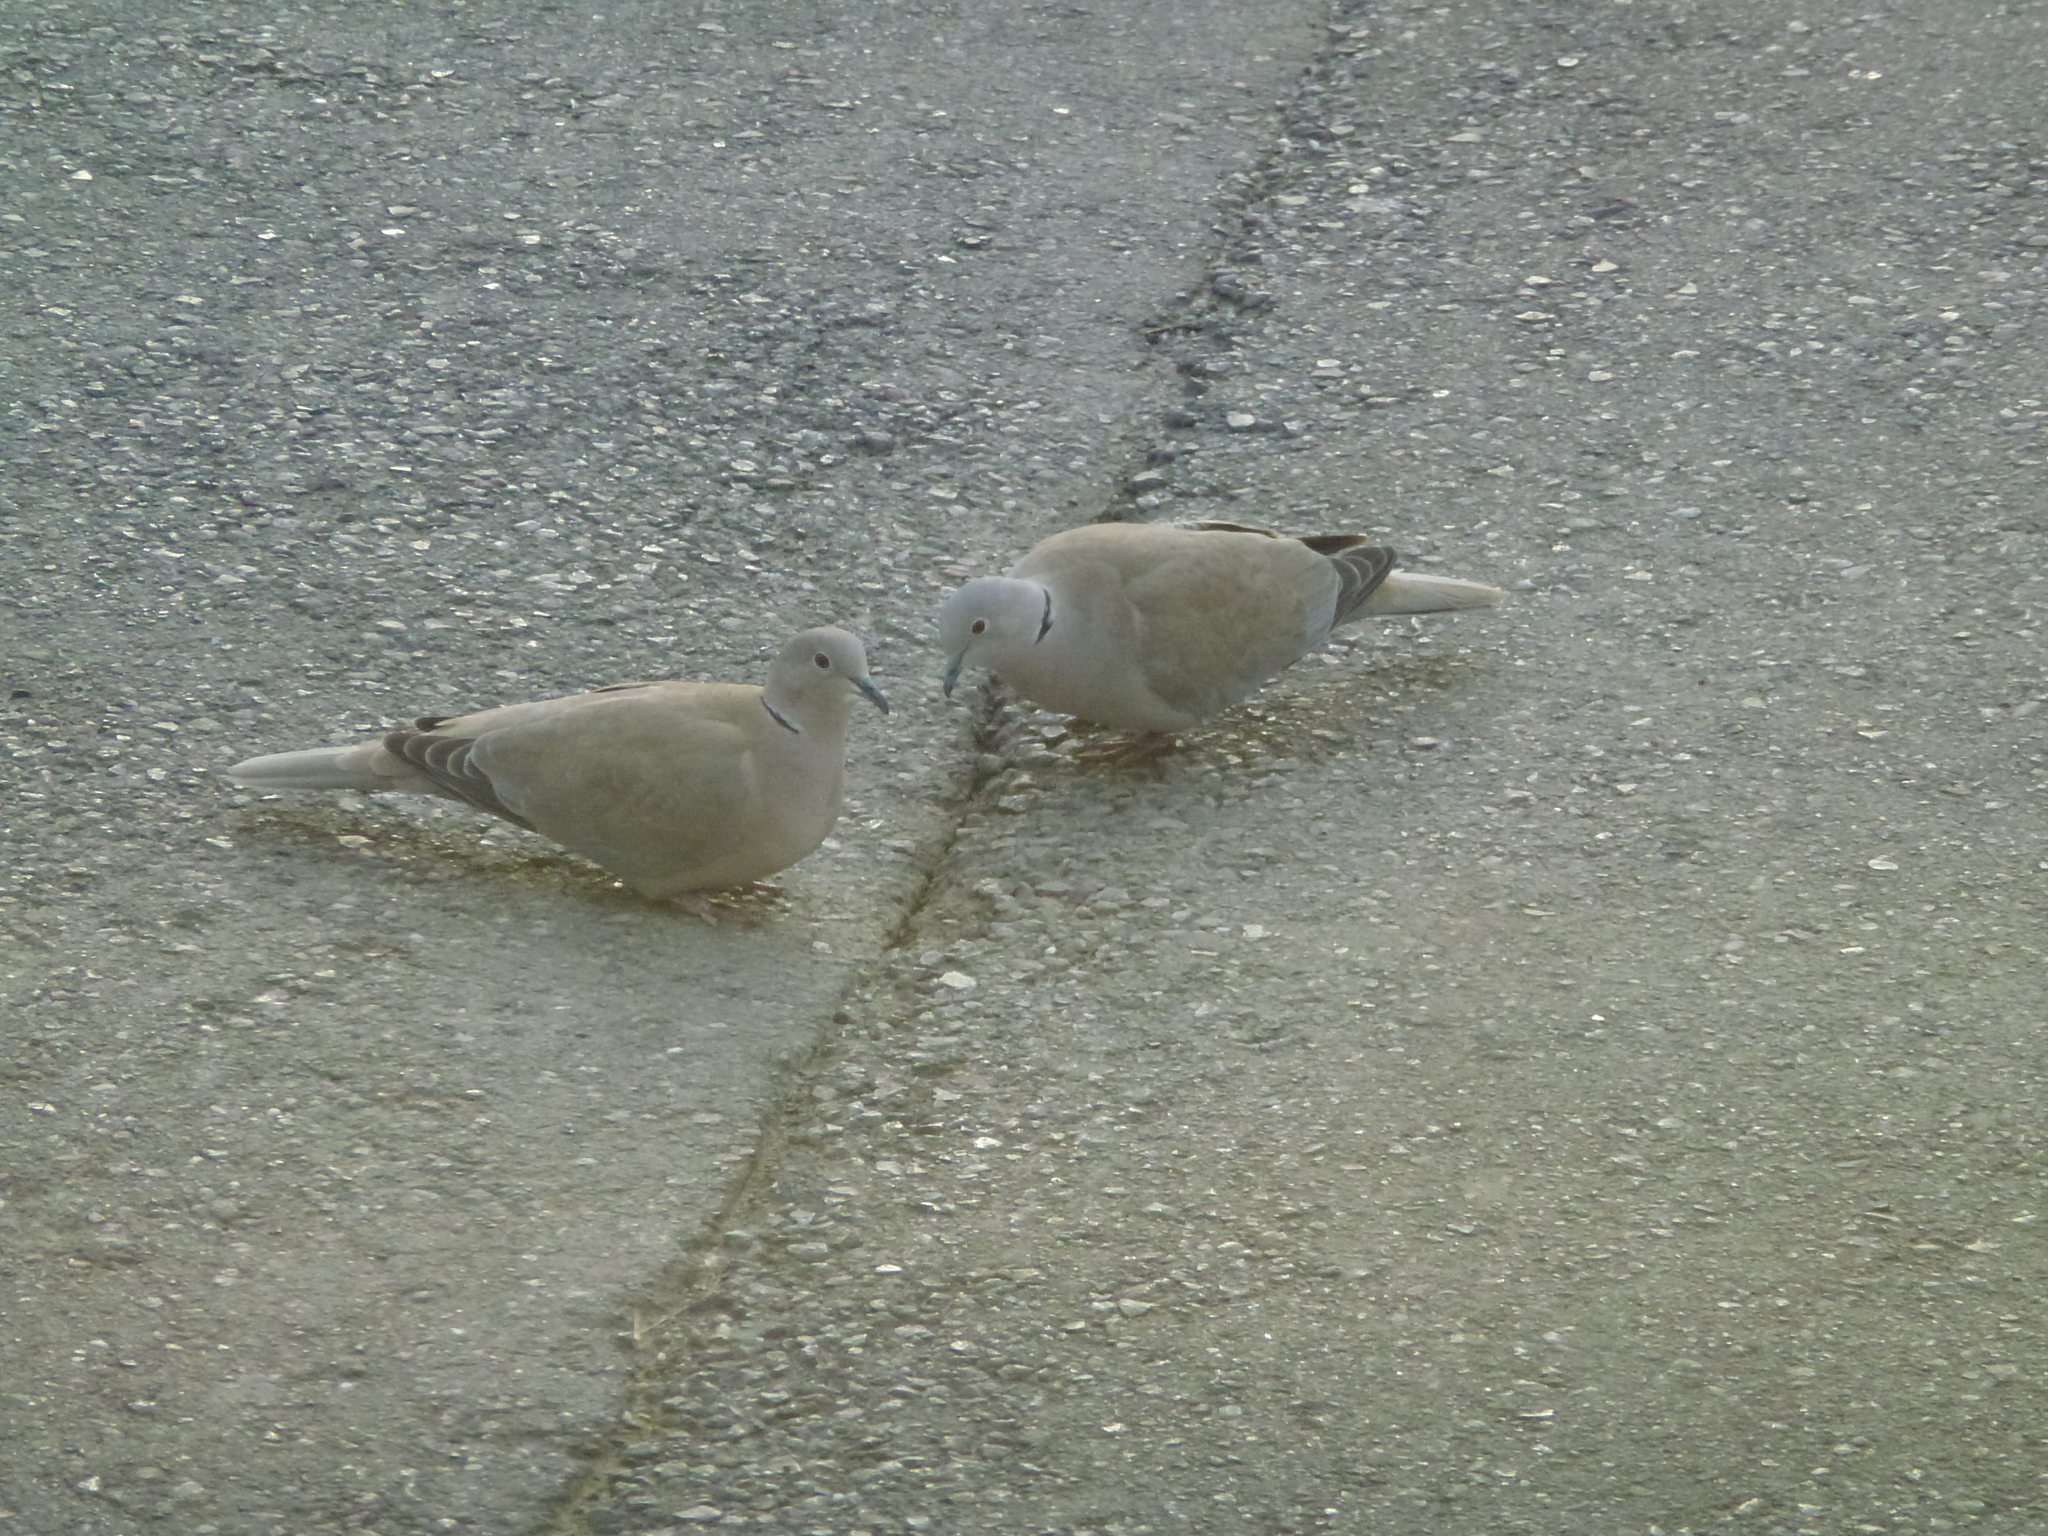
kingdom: Animalia
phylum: Chordata
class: Aves
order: Columbiformes
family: Columbidae
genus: Streptopelia
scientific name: Streptopelia decaocto
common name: Eurasian collared dove
